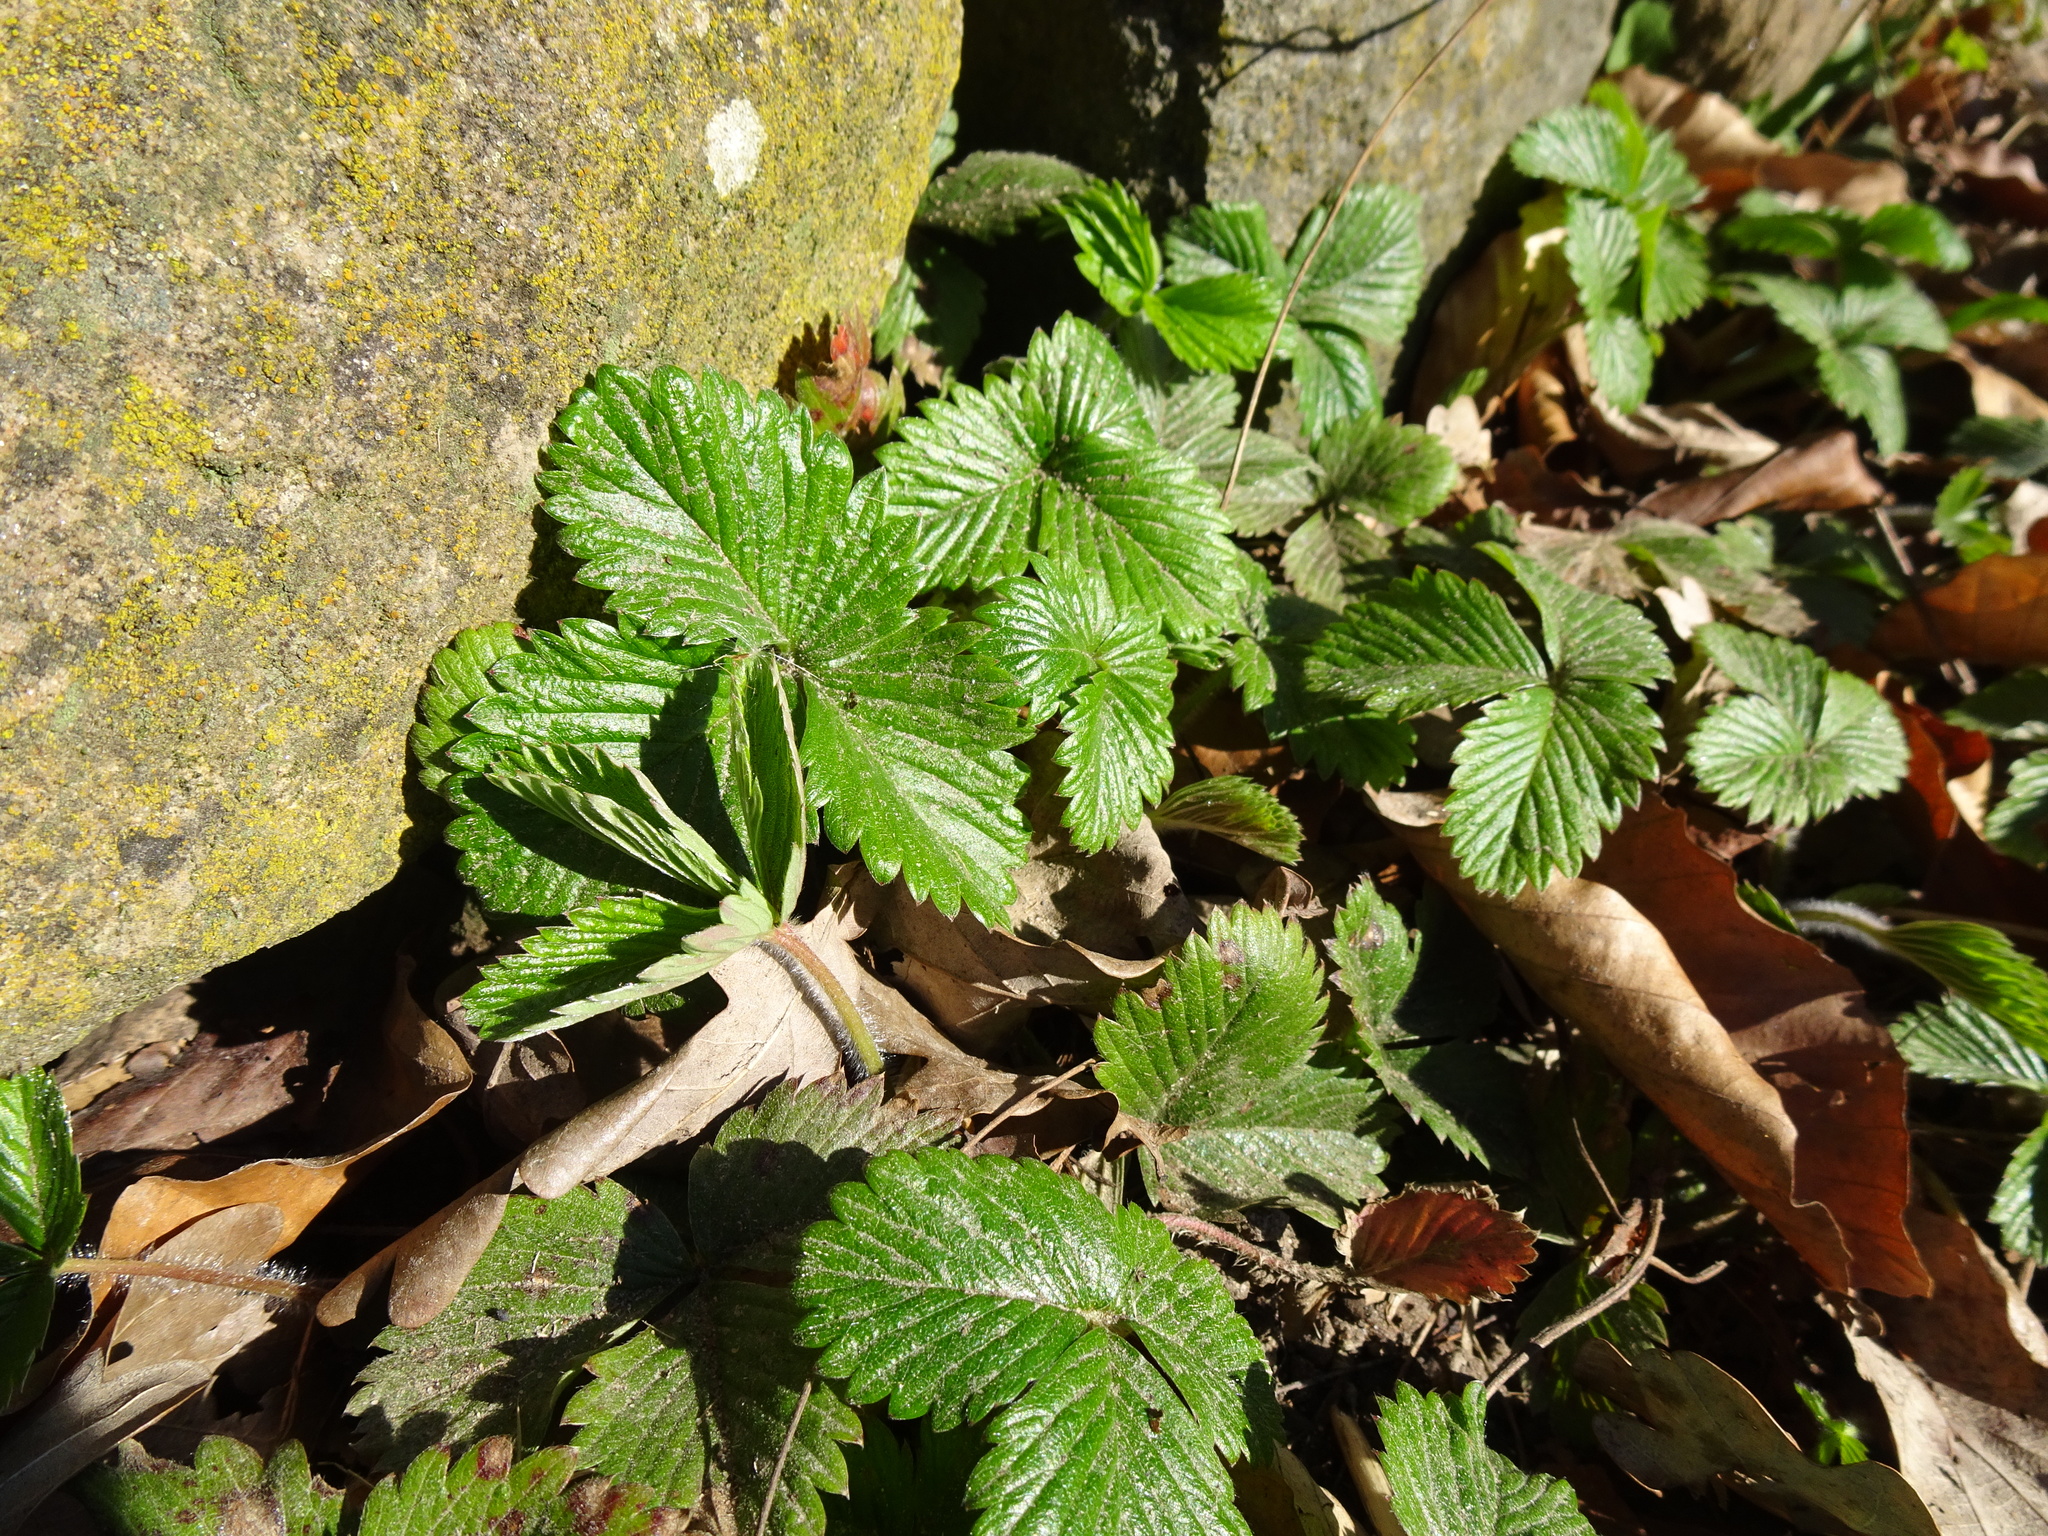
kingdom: Plantae
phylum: Tracheophyta
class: Magnoliopsida
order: Rosales
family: Rosaceae
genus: Fragaria
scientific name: Fragaria vesca
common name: Wild strawberry
